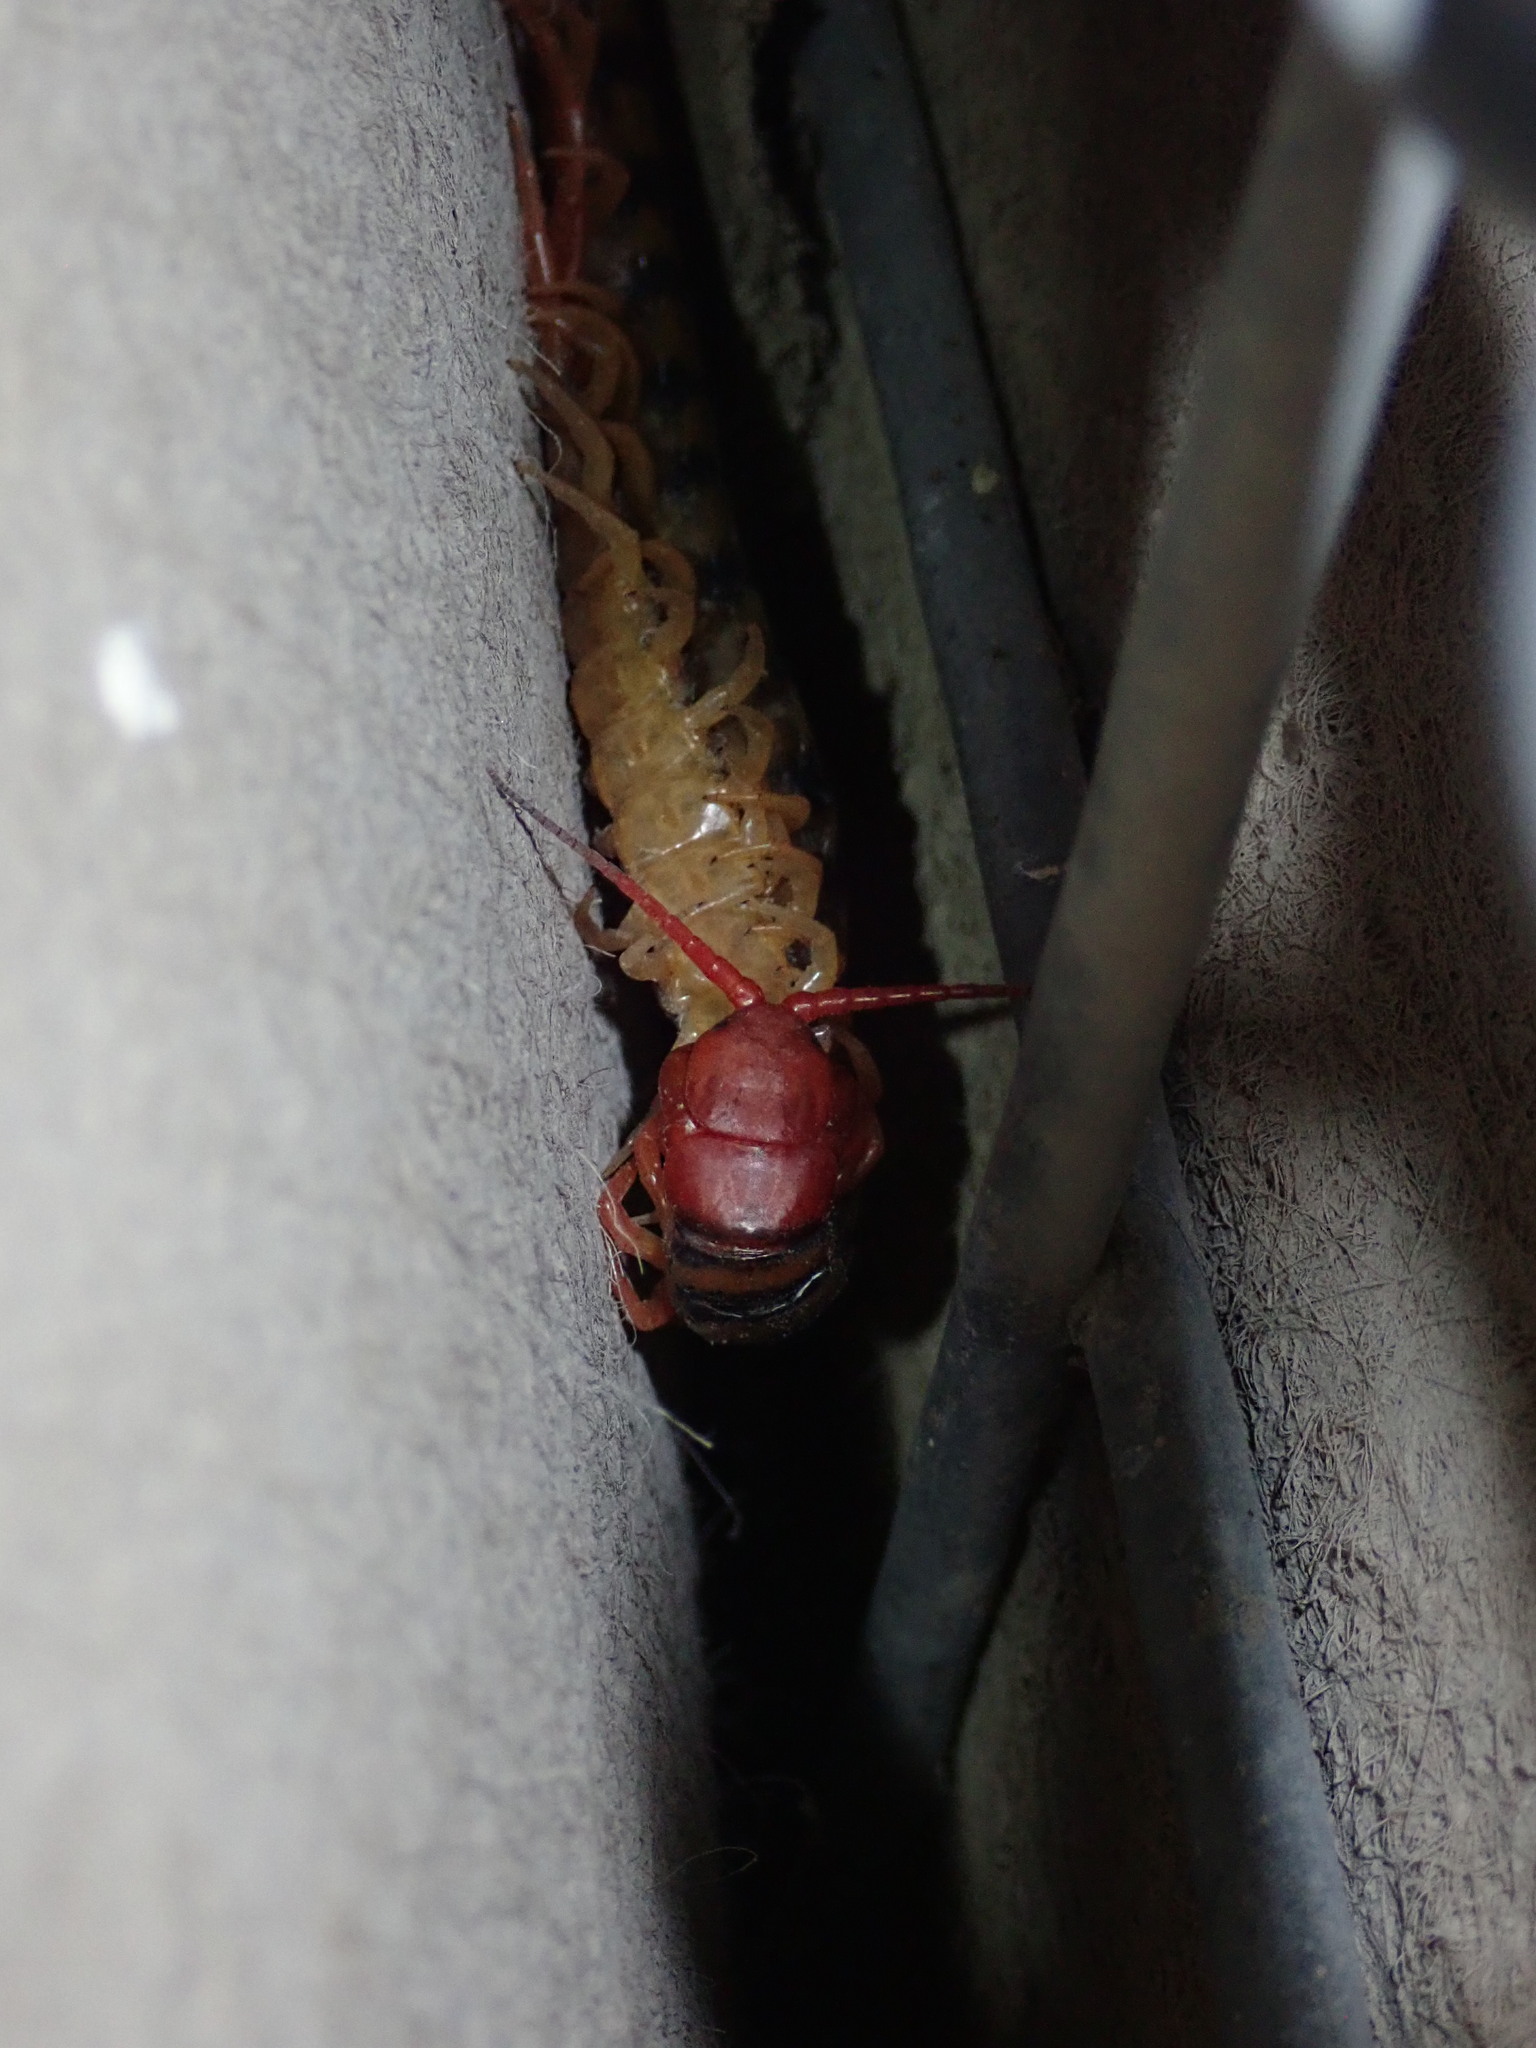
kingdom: Animalia
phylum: Arthropoda
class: Chilopoda
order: Scolopendromorpha
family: Scolopendridae
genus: Scolopendra
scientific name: Scolopendra morsitans
